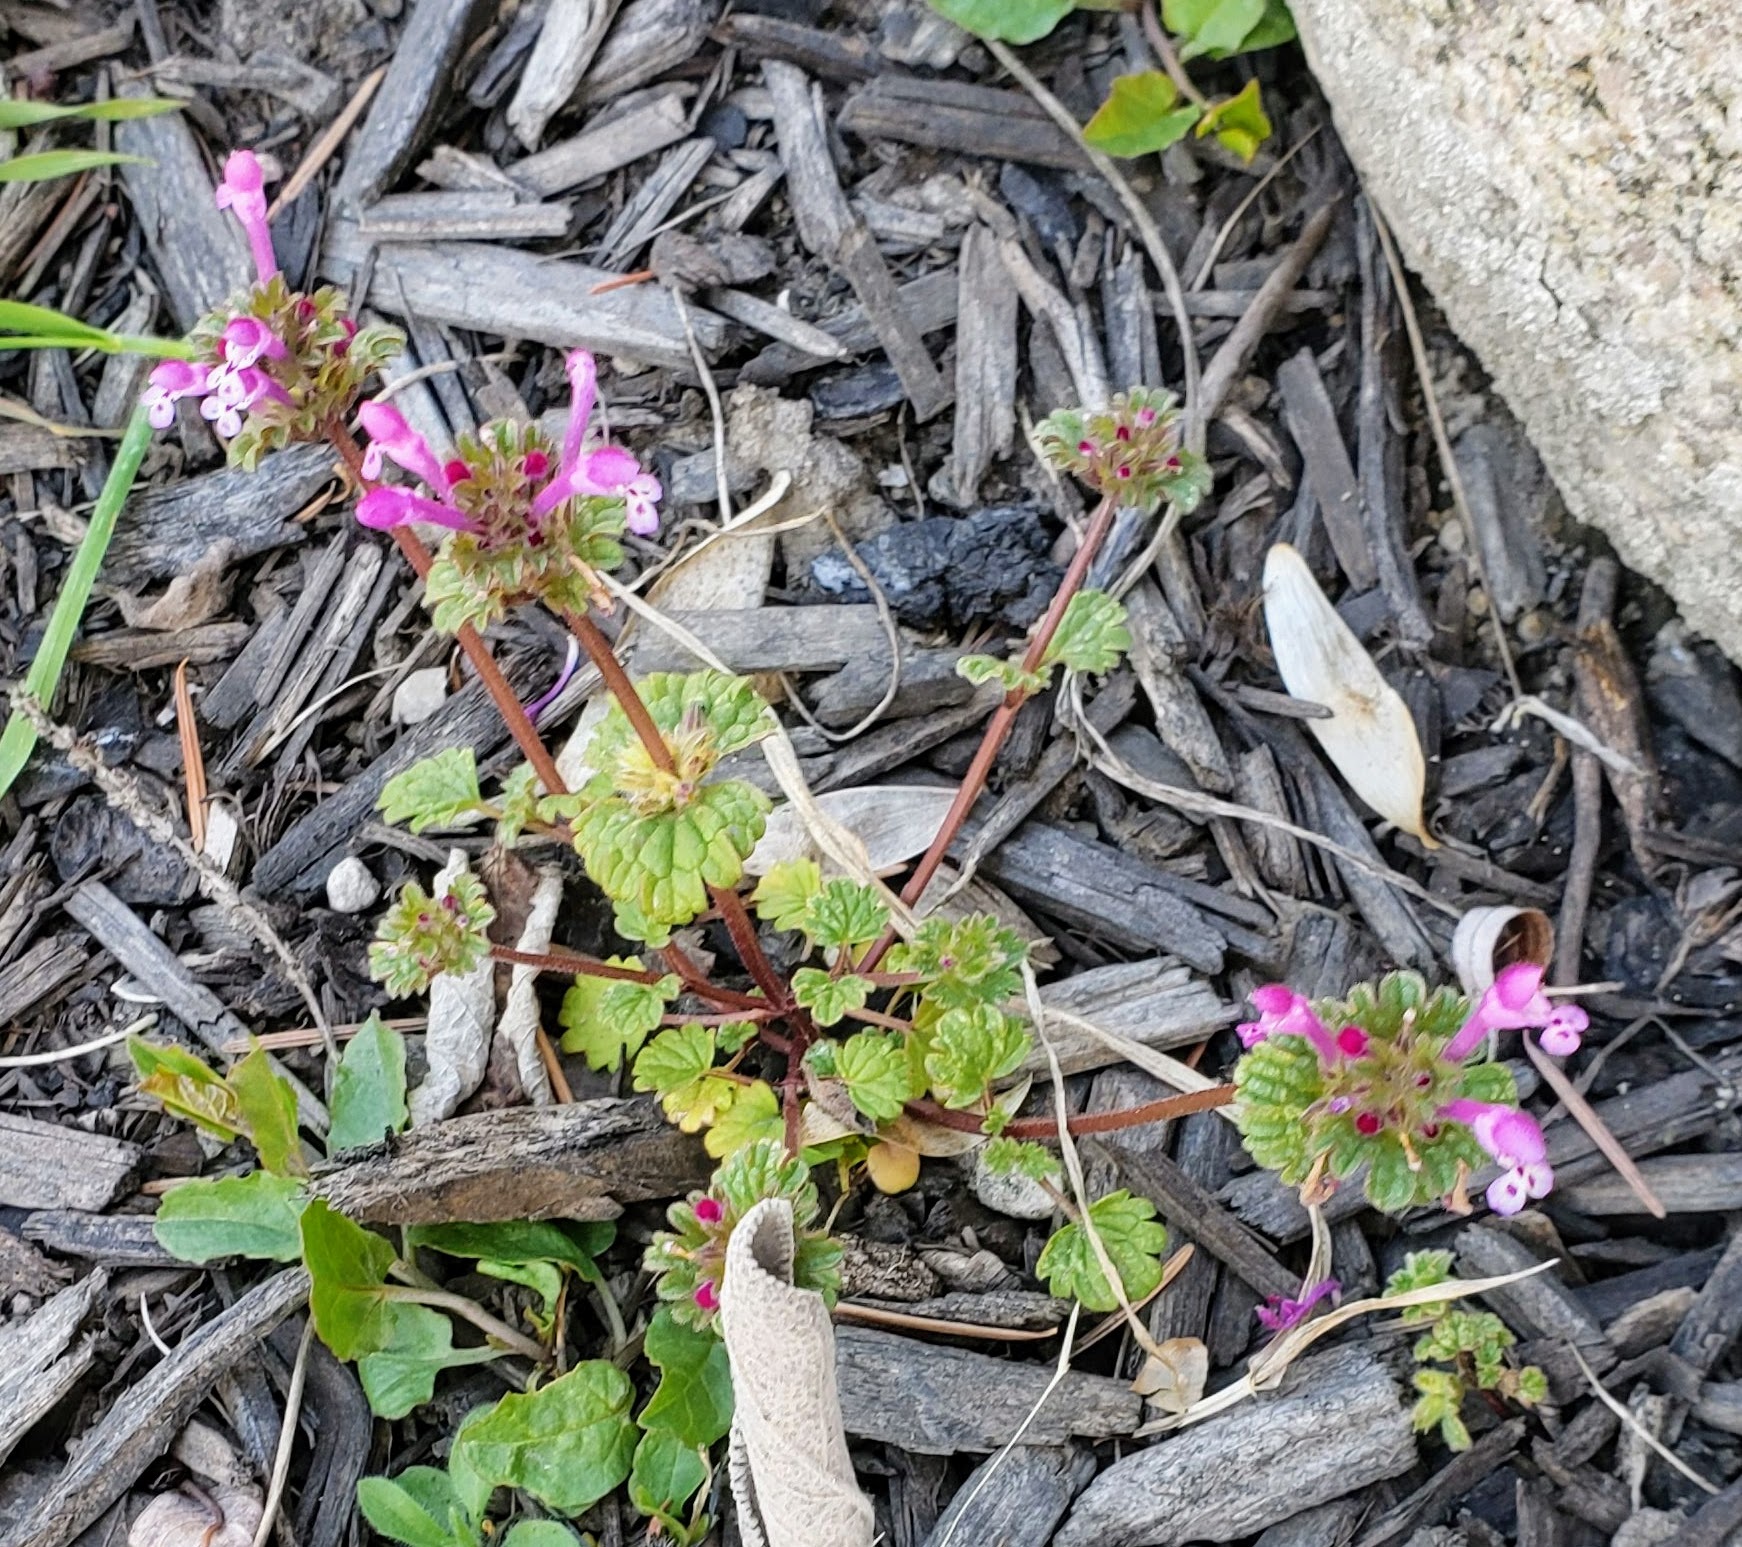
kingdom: Plantae
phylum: Tracheophyta
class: Magnoliopsida
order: Lamiales
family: Lamiaceae
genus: Lamium
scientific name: Lamium amplexicaule
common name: Henbit dead-nettle
